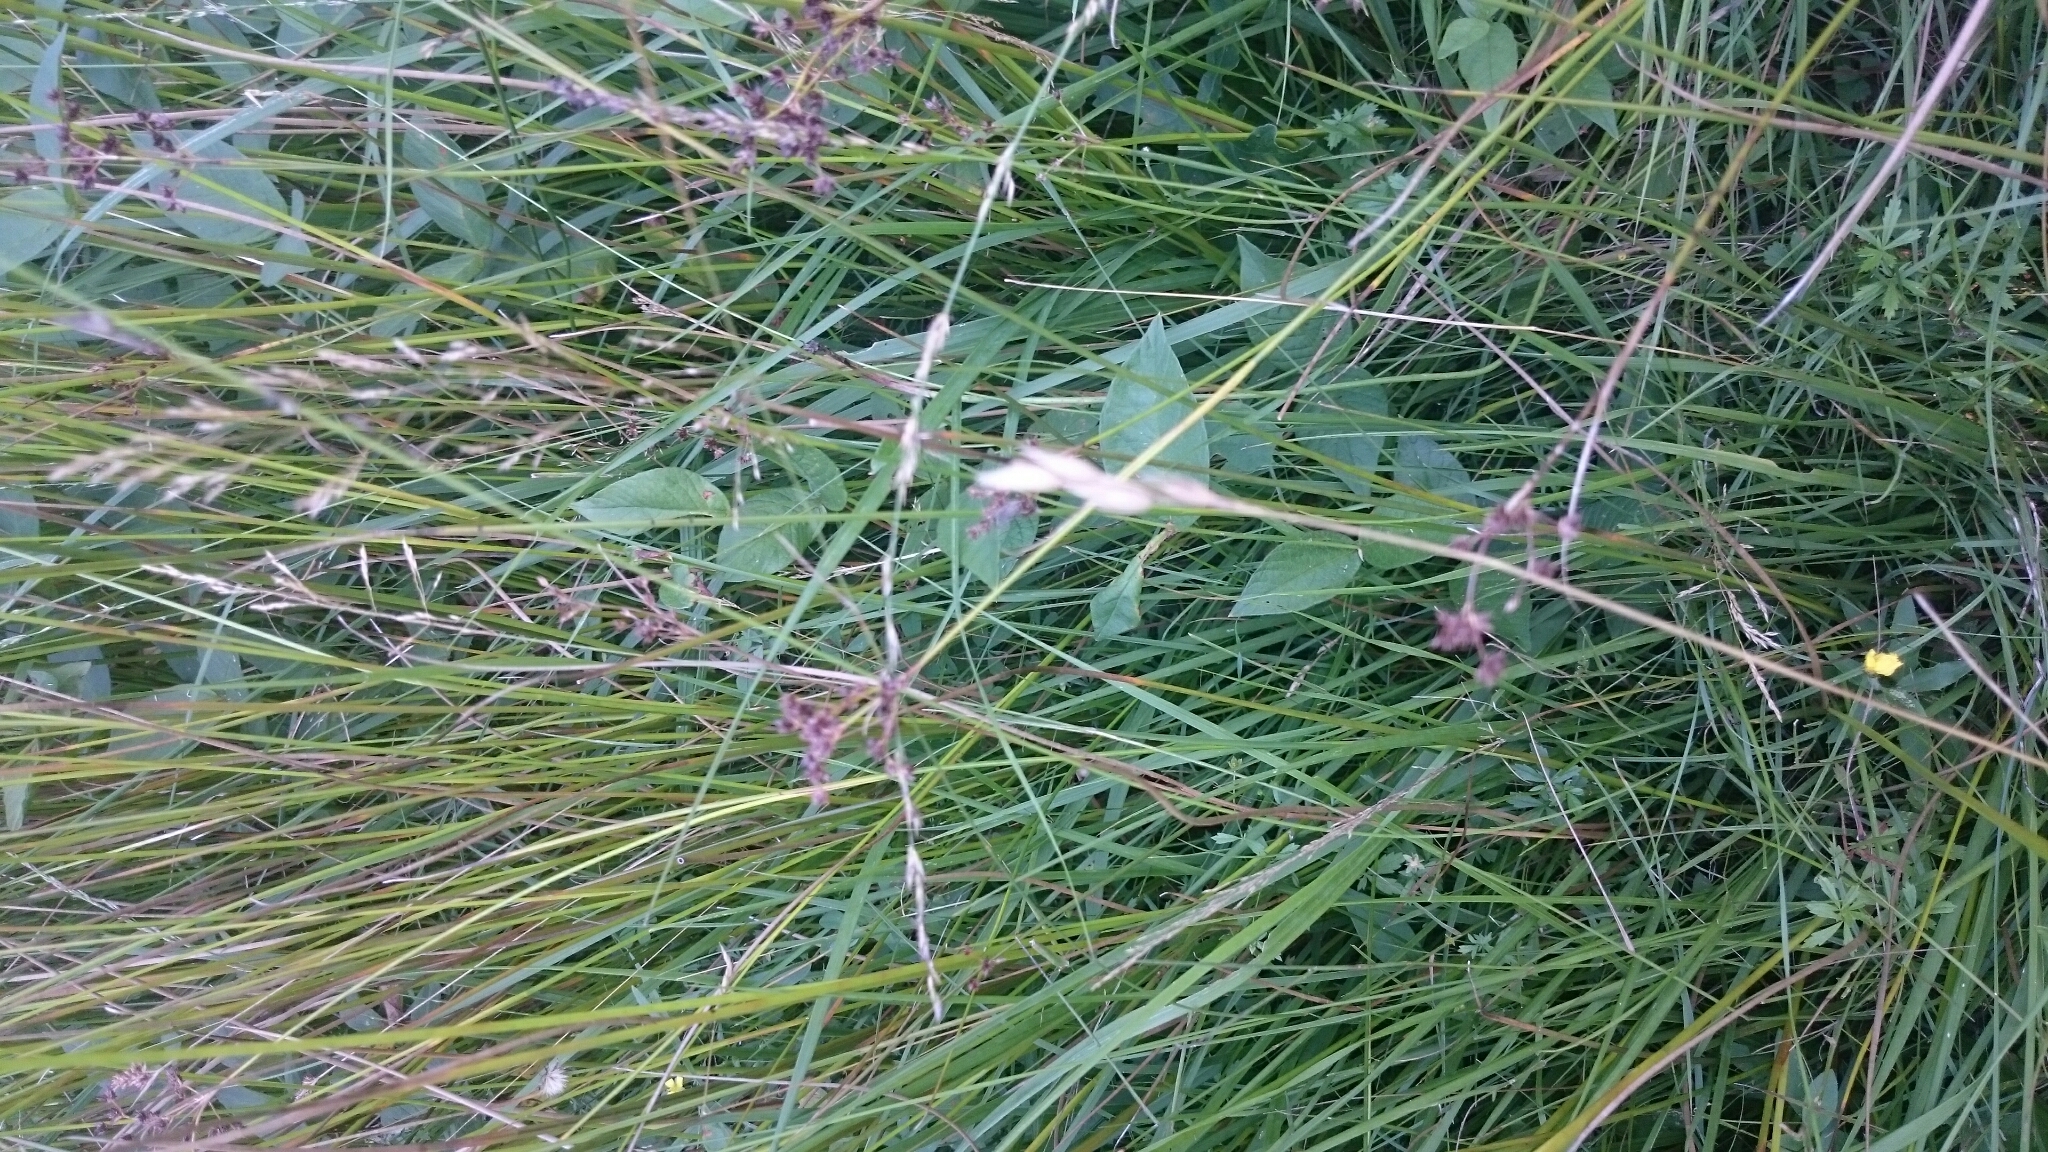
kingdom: Plantae
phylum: Tracheophyta
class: Liliopsida
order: Poales
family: Poaceae
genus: Danthonia
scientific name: Danthonia decumbens
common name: Common heathgrass
